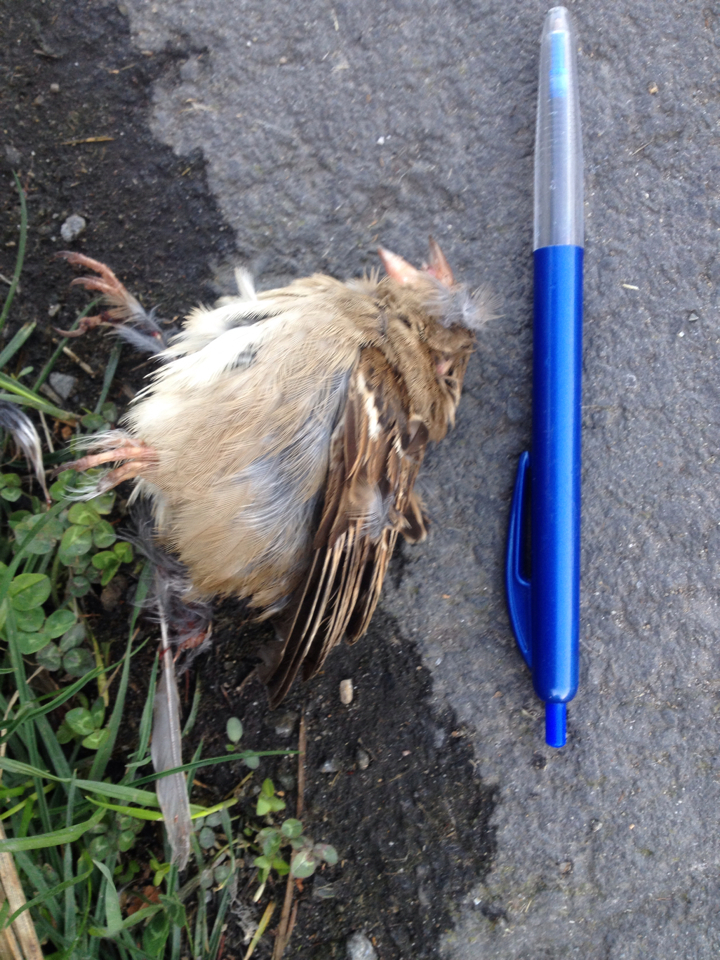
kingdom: Animalia
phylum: Chordata
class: Aves
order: Passeriformes
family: Passeridae
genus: Passer
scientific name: Passer domesticus
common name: House sparrow
